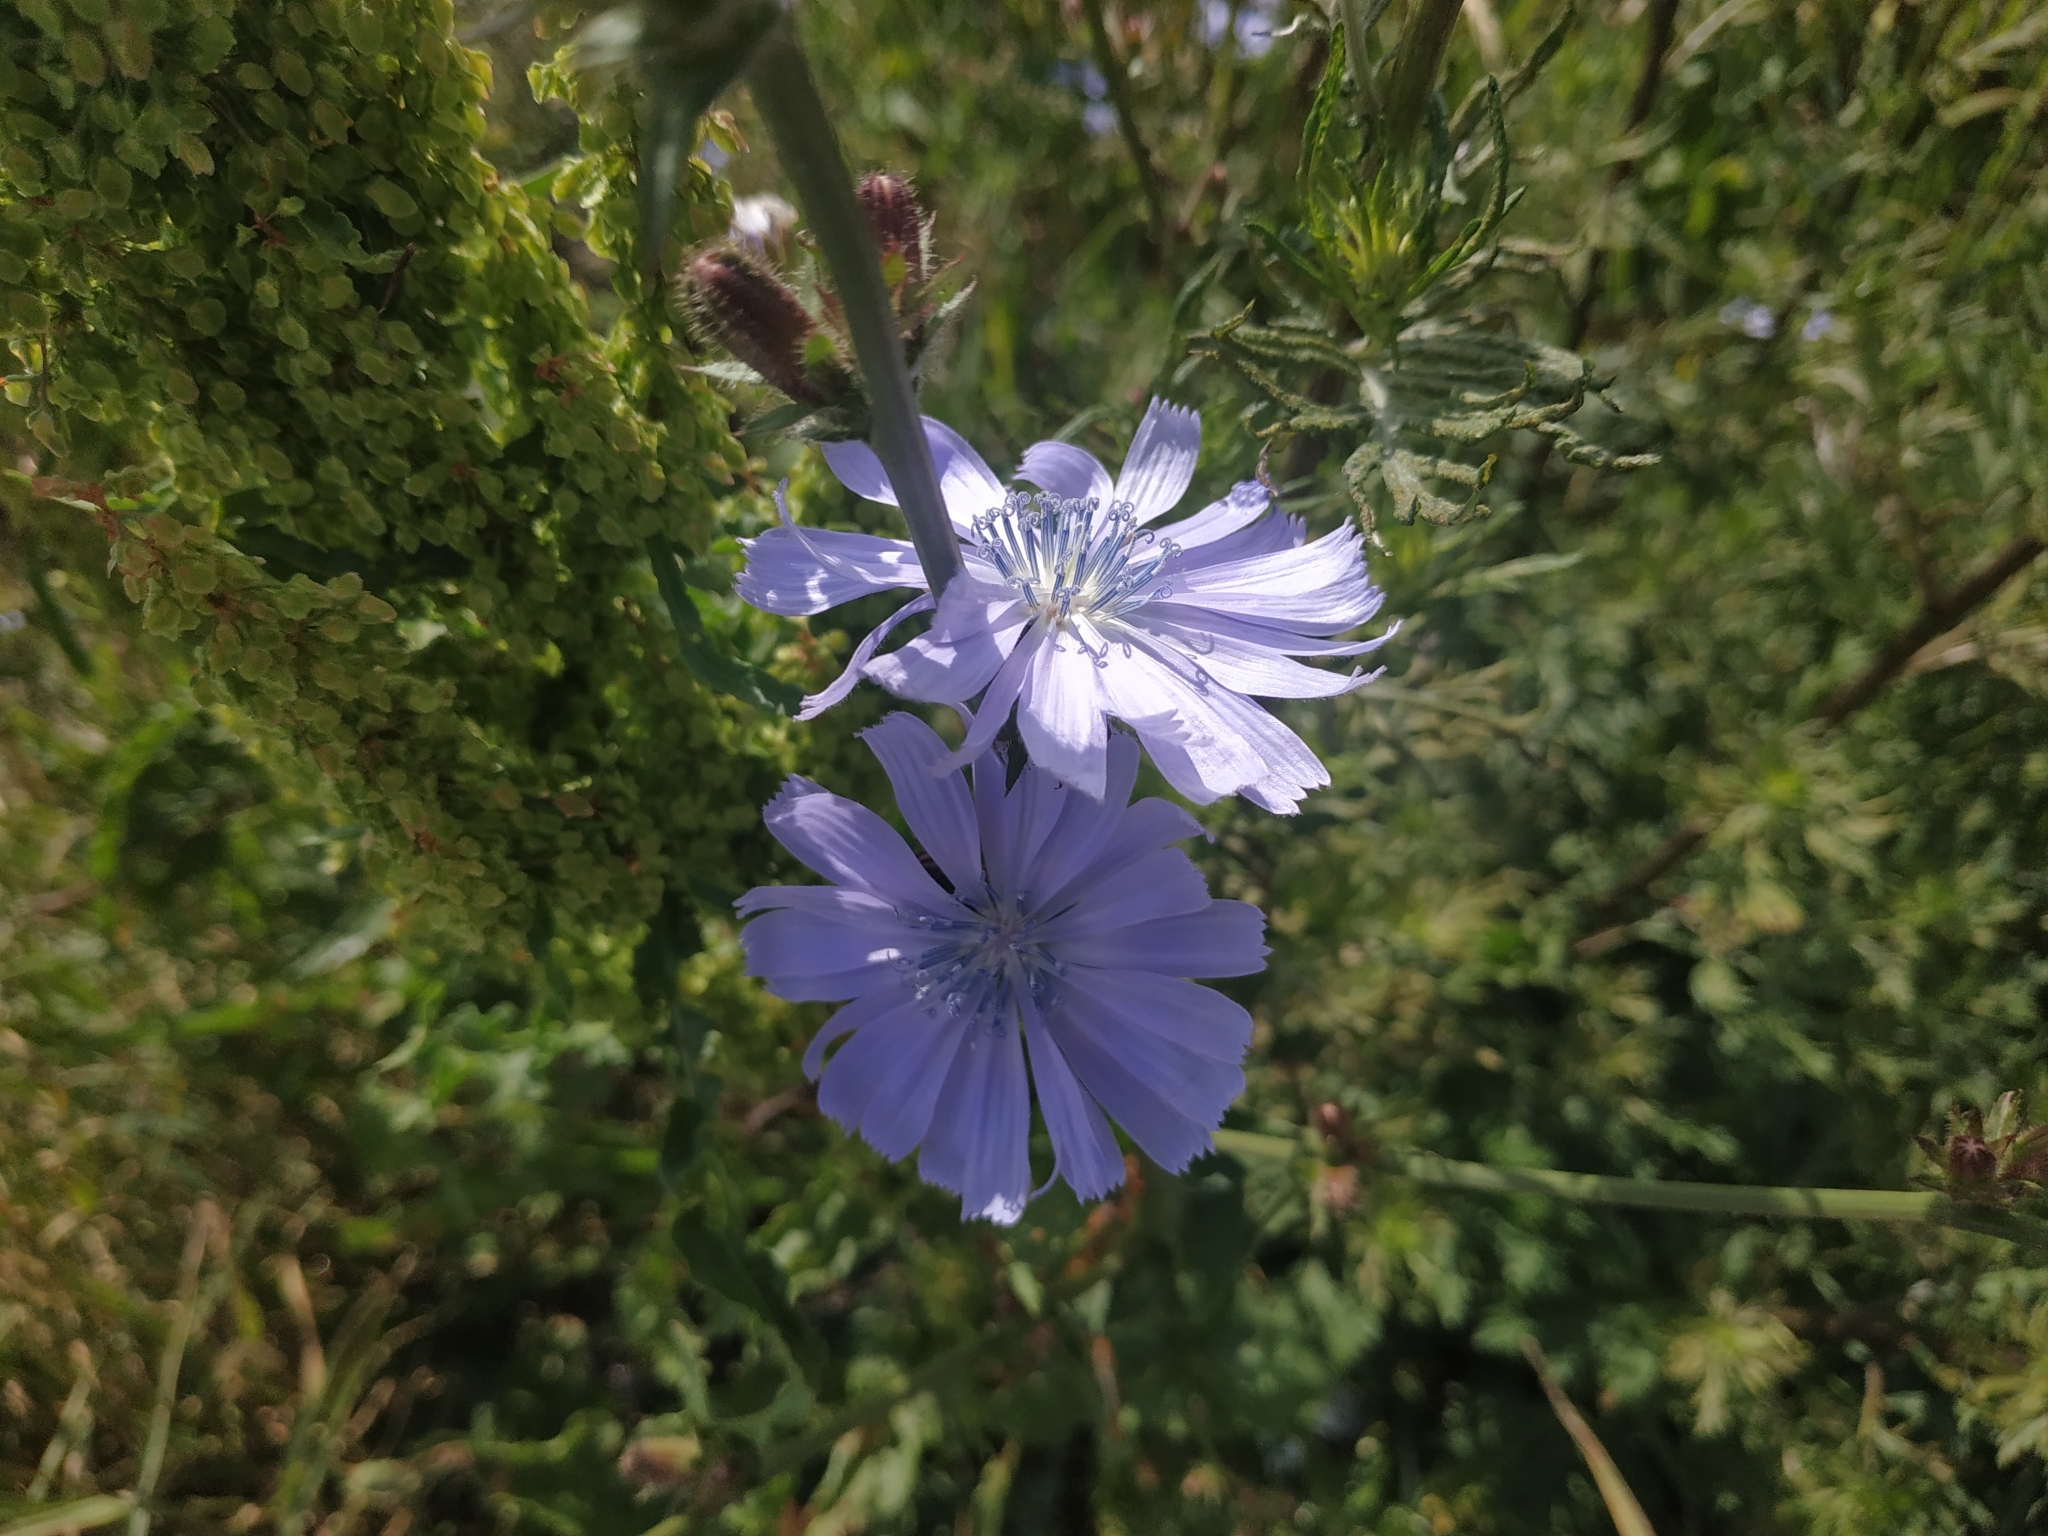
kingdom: Plantae
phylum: Tracheophyta
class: Magnoliopsida
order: Asterales
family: Asteraceae
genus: Cichorium
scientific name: Cichorium intybus
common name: Chicory
